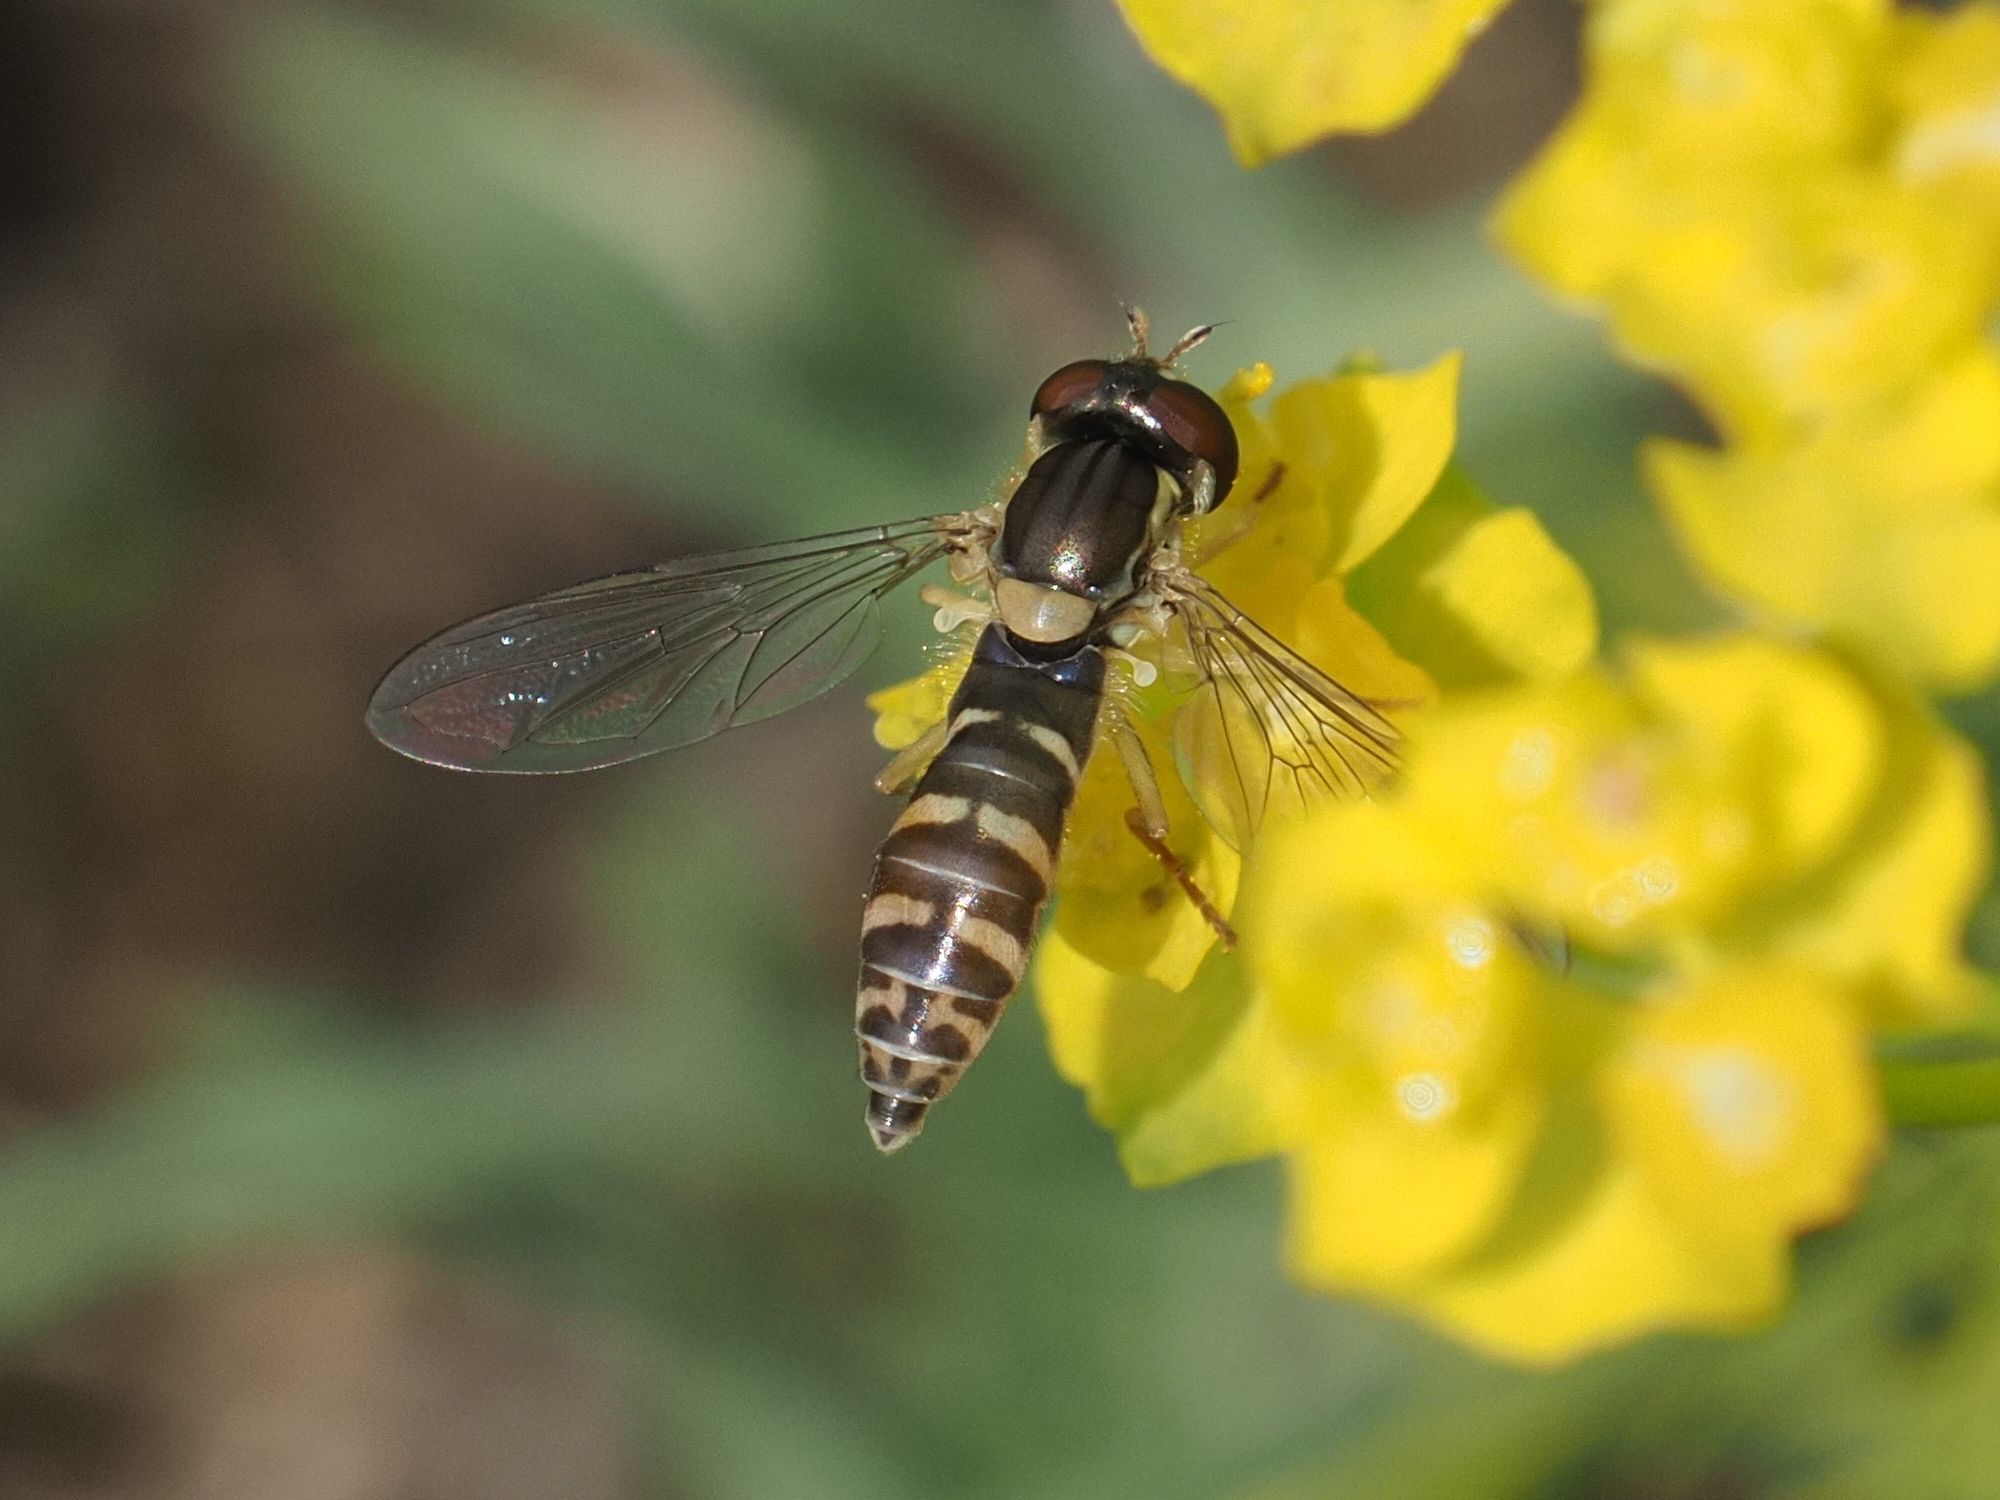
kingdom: Animalia
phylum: Arthropoda
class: Insecta
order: Diptera
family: Syrphidae
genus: Sphaerophoria
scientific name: Sphaerophoria
